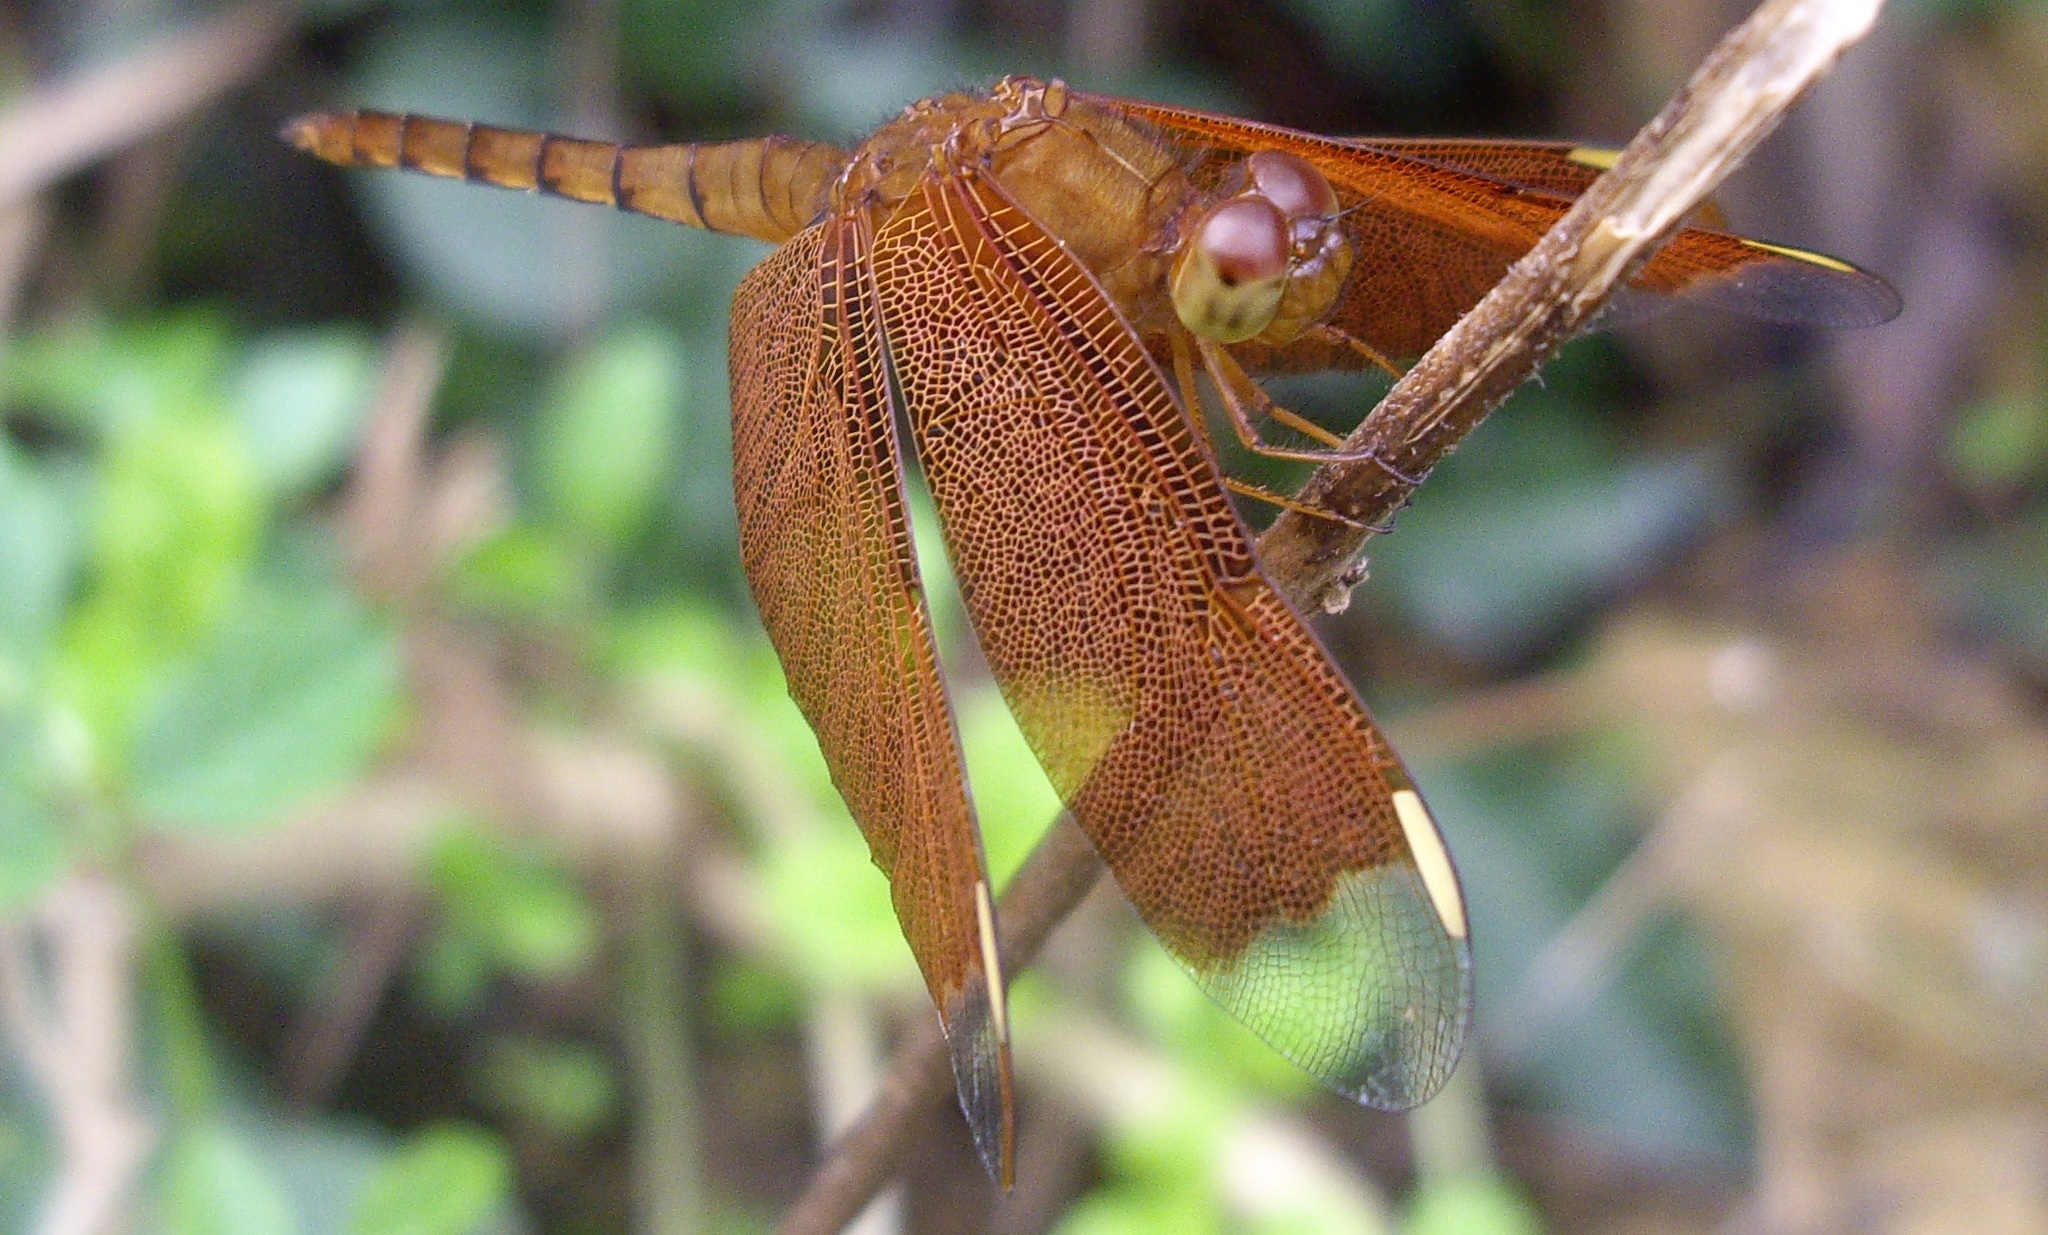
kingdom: Animalia
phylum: Arthropoda
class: Insecta
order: Odonata
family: Libellulidae
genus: Neurothemis
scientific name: Neurothemis fulvia
